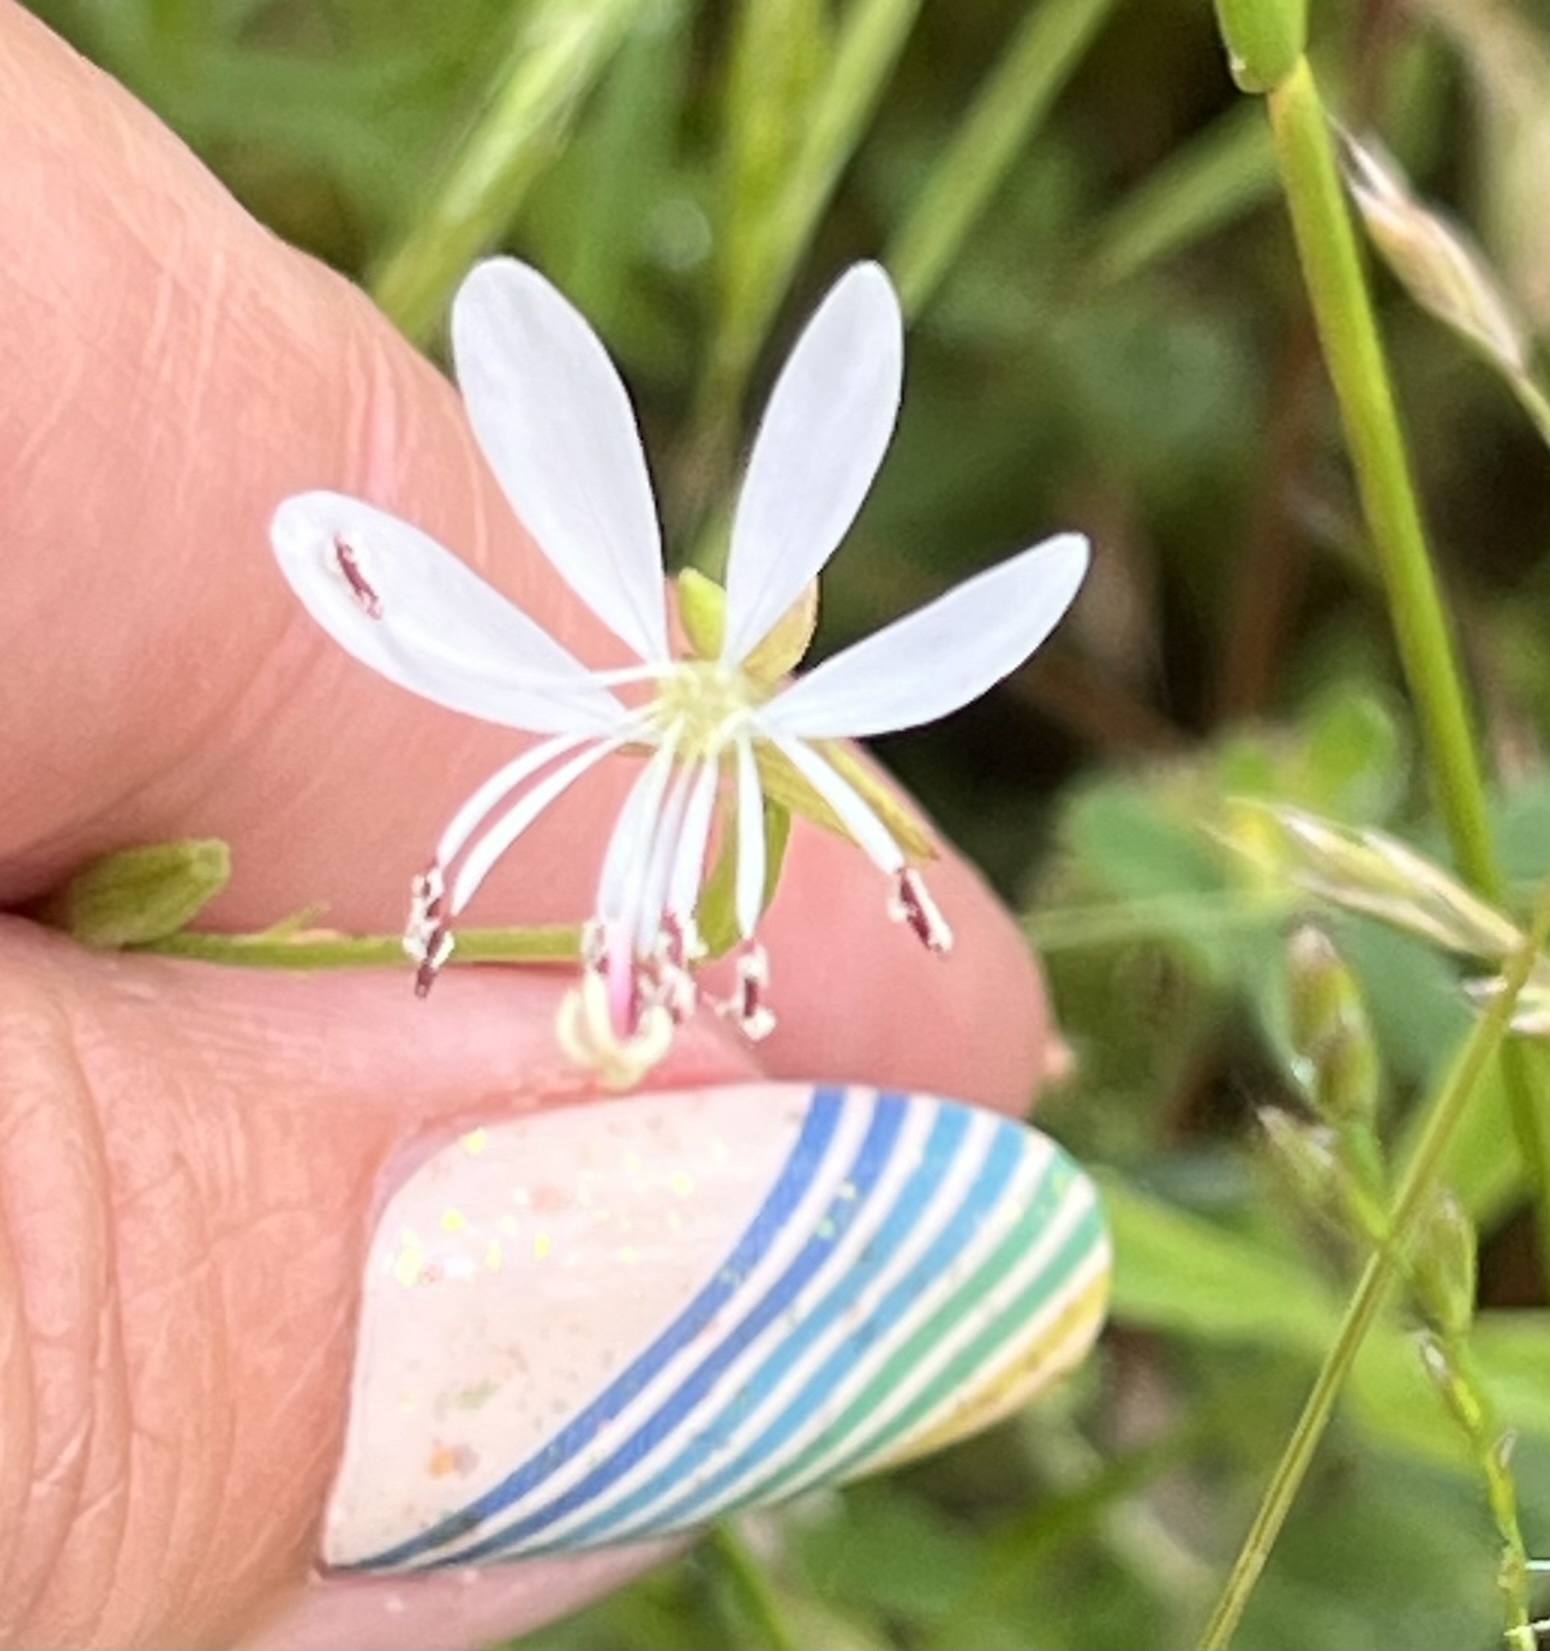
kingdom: Plantae
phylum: Tracheophyta
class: Magnoliopsida
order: Myrtales
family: Onagraceae
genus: Oenothera
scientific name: Oenothera suffulta
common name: Kisses
